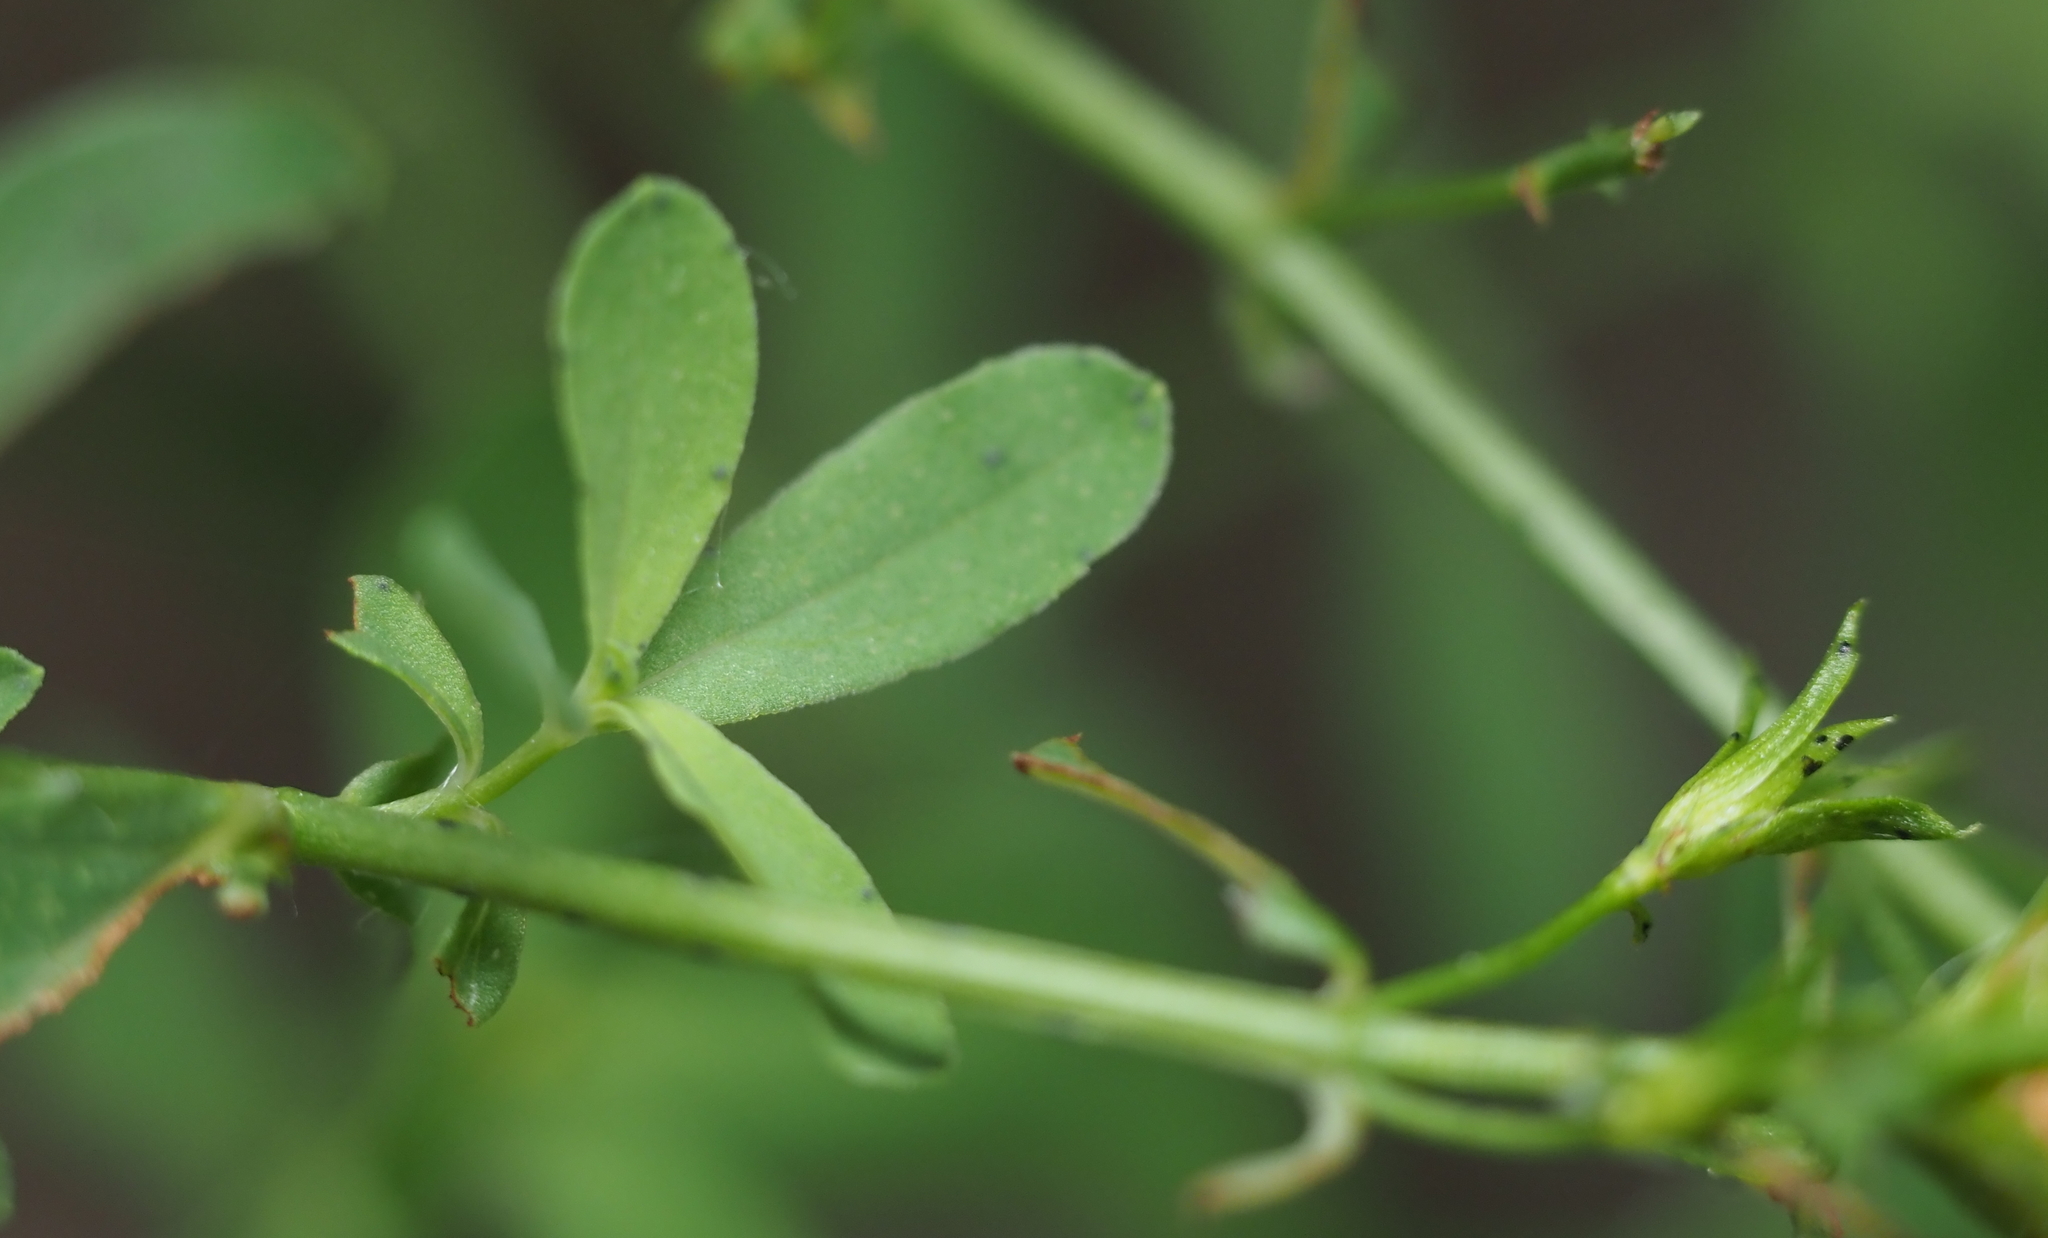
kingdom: Plantae
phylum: Tracheophyta
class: Magnoliopsida
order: Malpighiales
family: Hypericaceae
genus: Hypericum
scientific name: Hypericum perforatum
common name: Common st. johnswort
